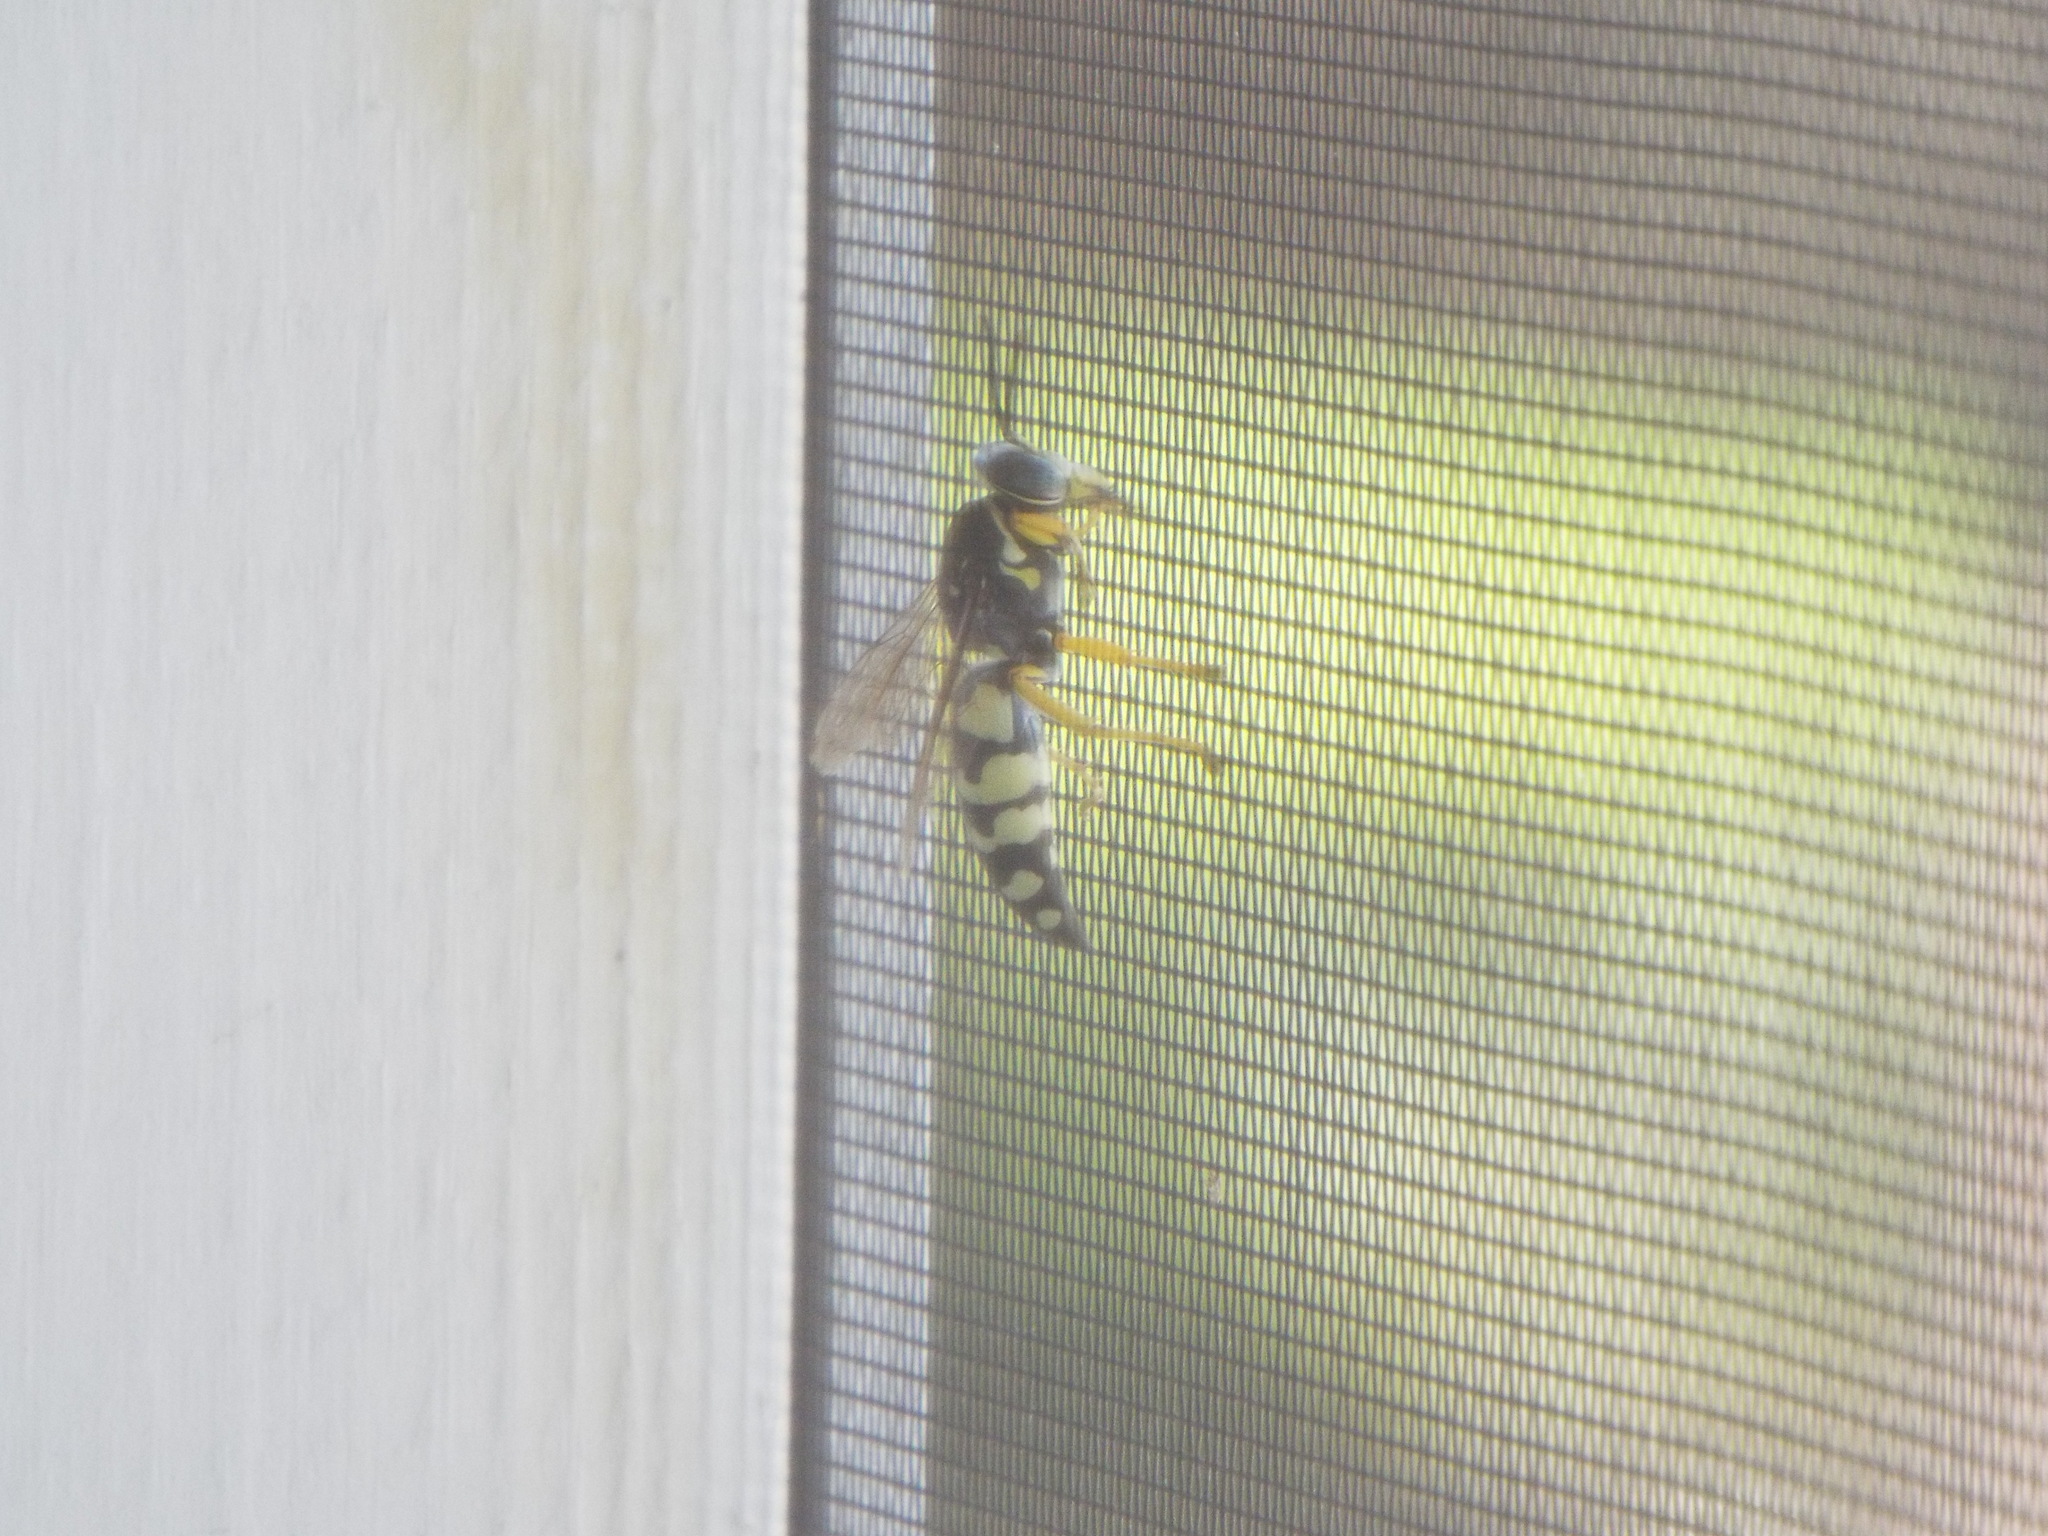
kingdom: Animalia
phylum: Arthropoda
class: Insecta
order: Hymenoptera
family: Crabronidae
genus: Stictia
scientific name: Stictia carolina
